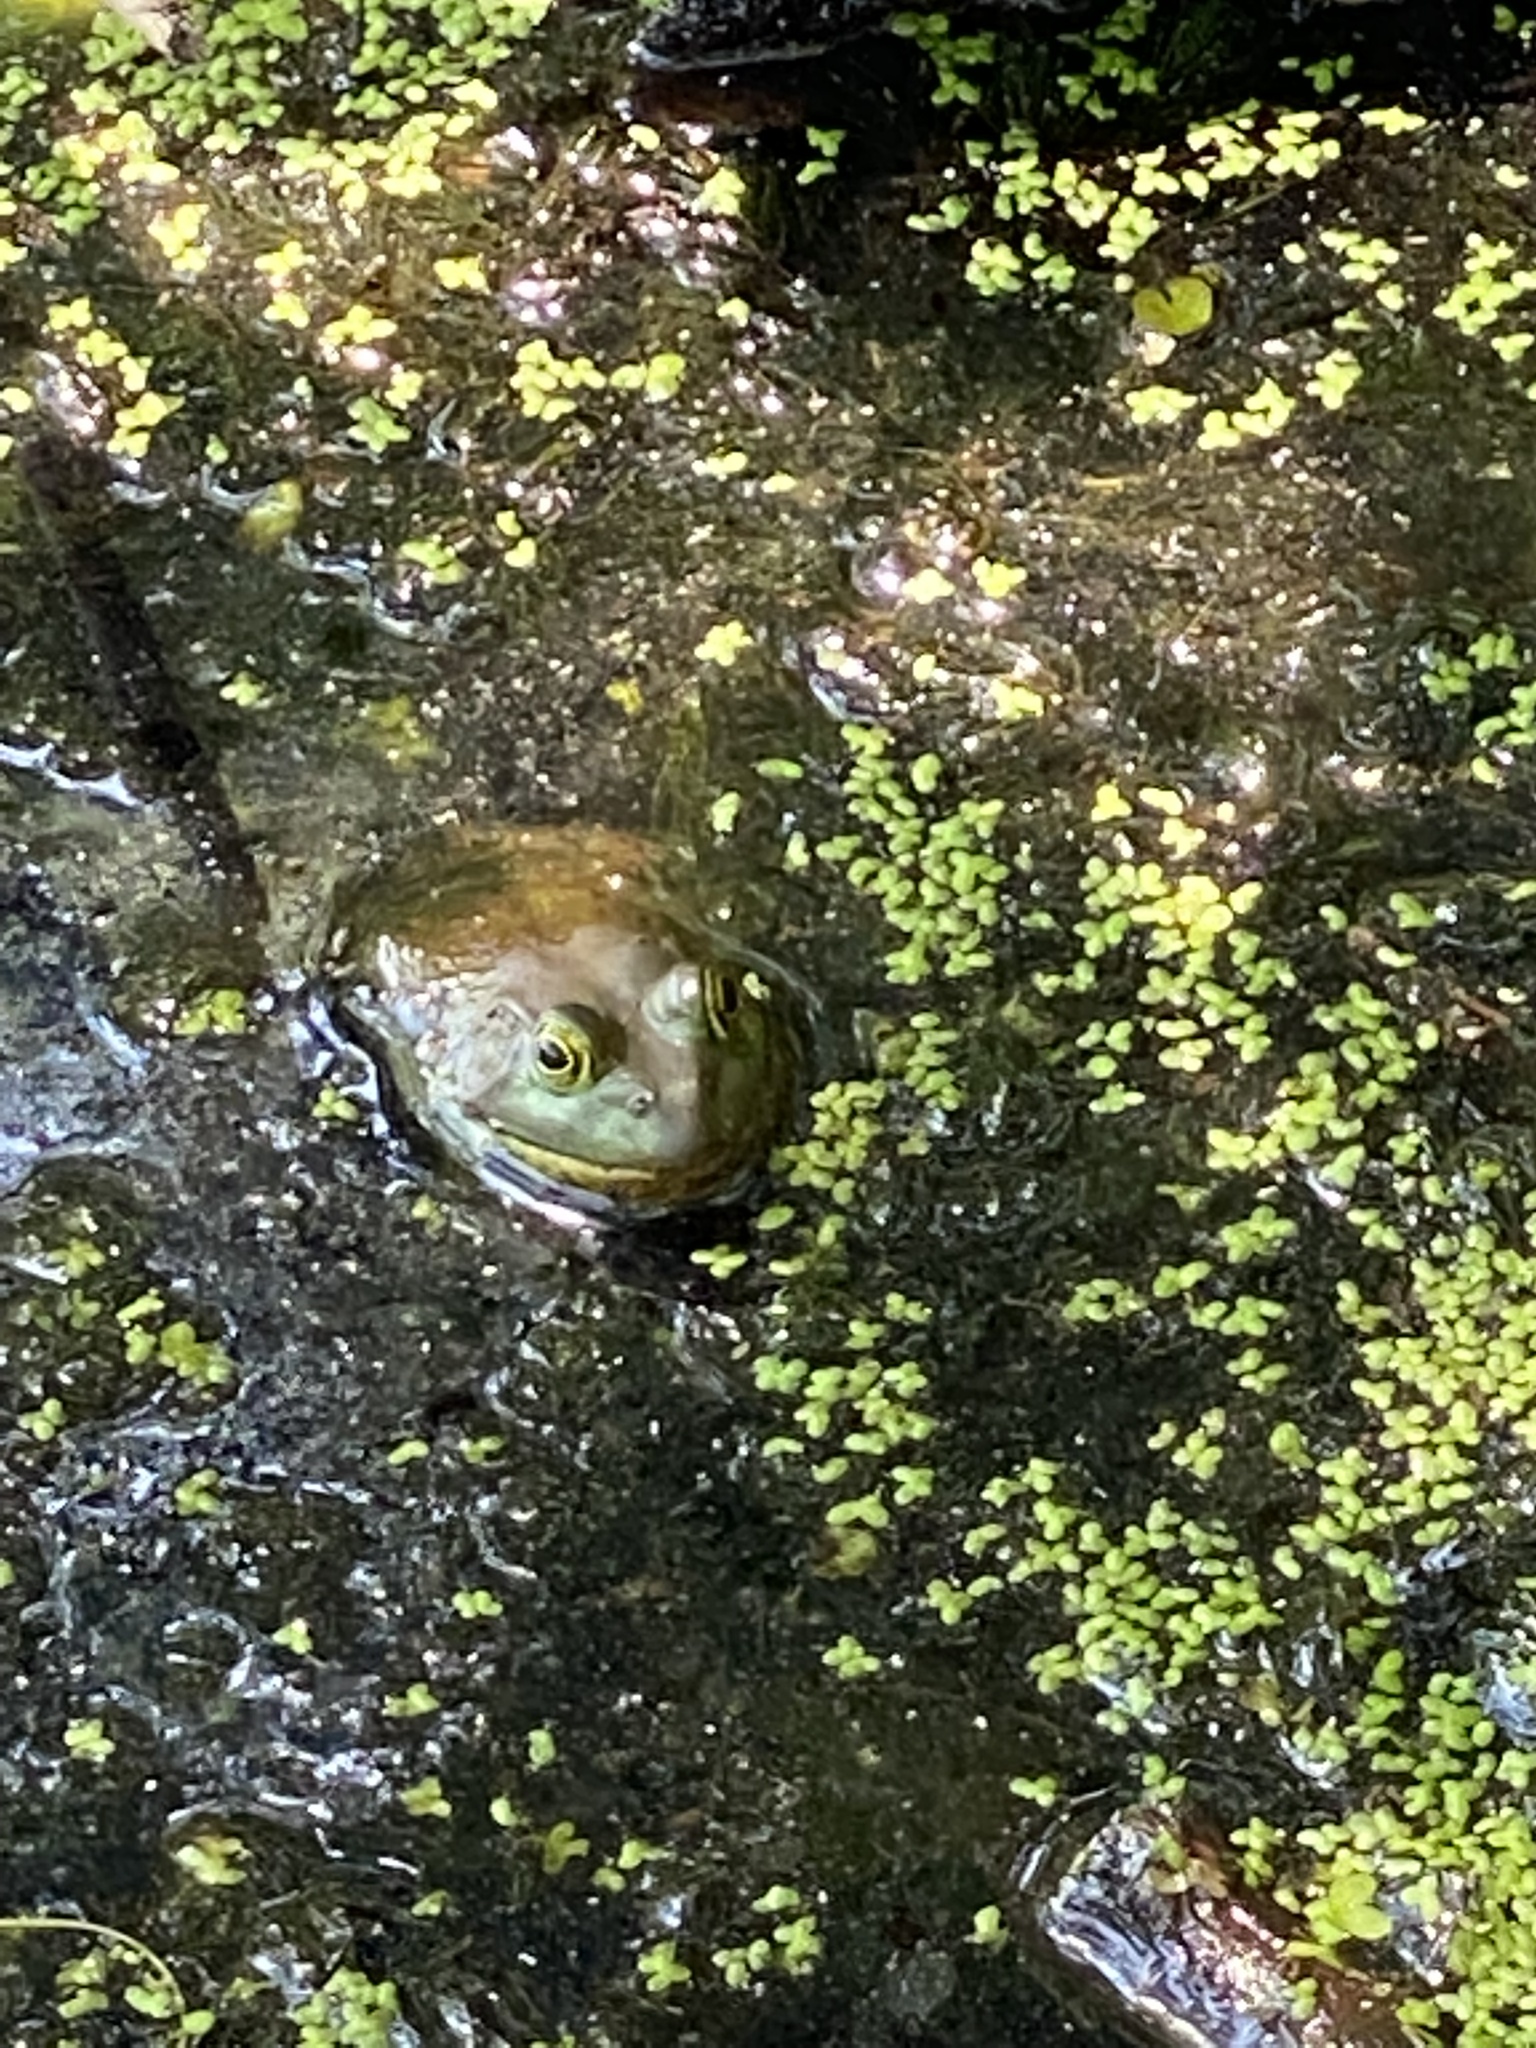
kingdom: Animalia
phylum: Chordata
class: Amphibia
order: Anura
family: Ranidae
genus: Lithobates
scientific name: Lithobates catesbeianus
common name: American bullfrog
